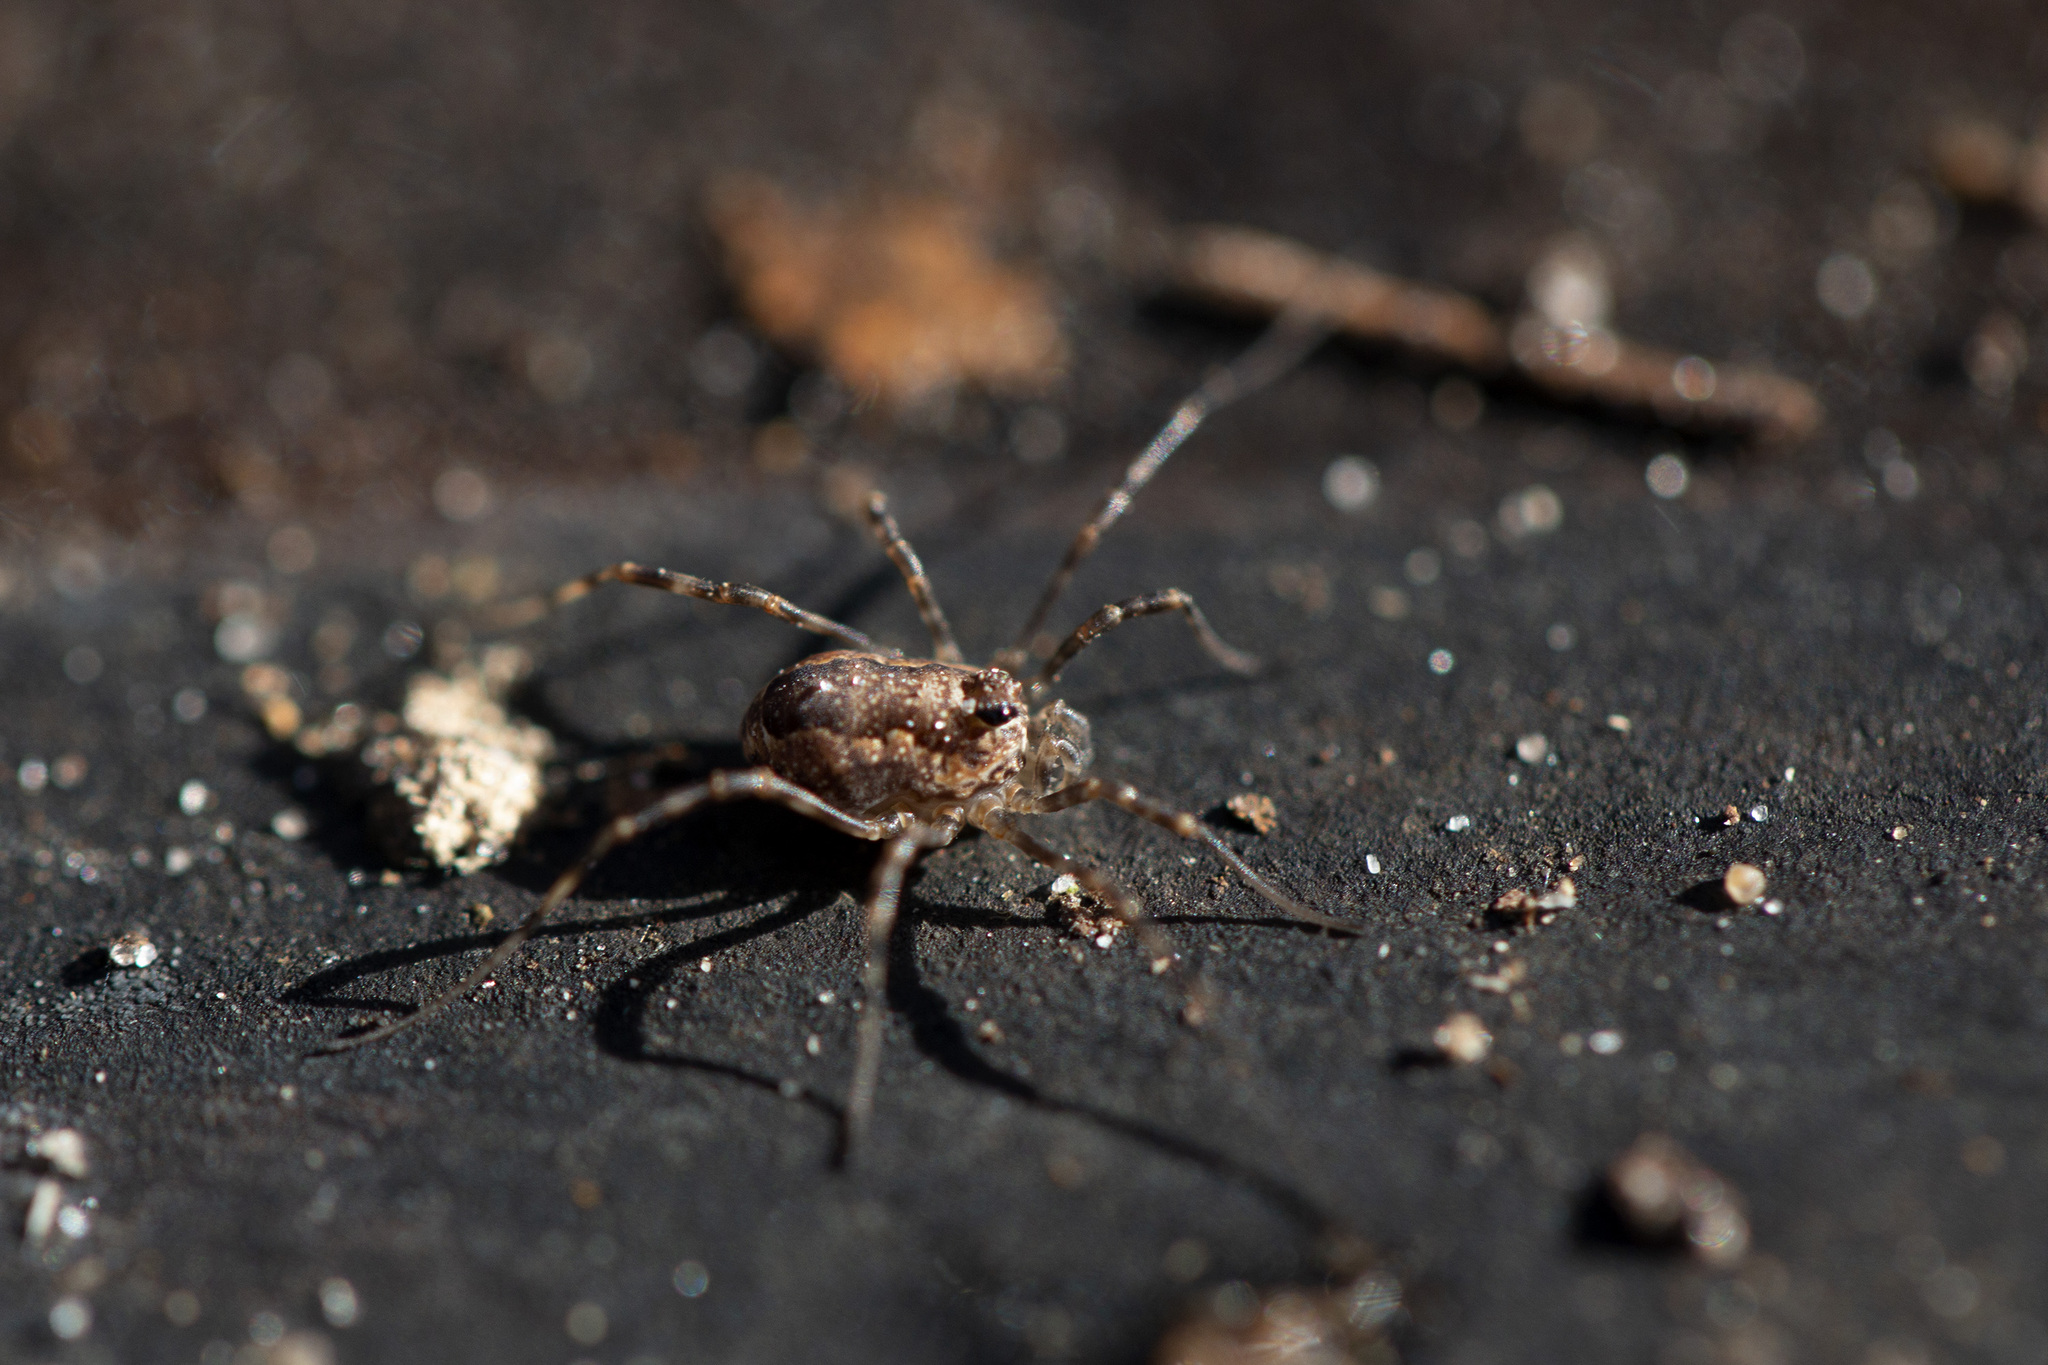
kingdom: Animalia
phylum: Arthropoda
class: Arachnida
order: Opiliones
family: Phalangiidae
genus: Rilaena
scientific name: Rilaena triangularis
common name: Spring harvestman
